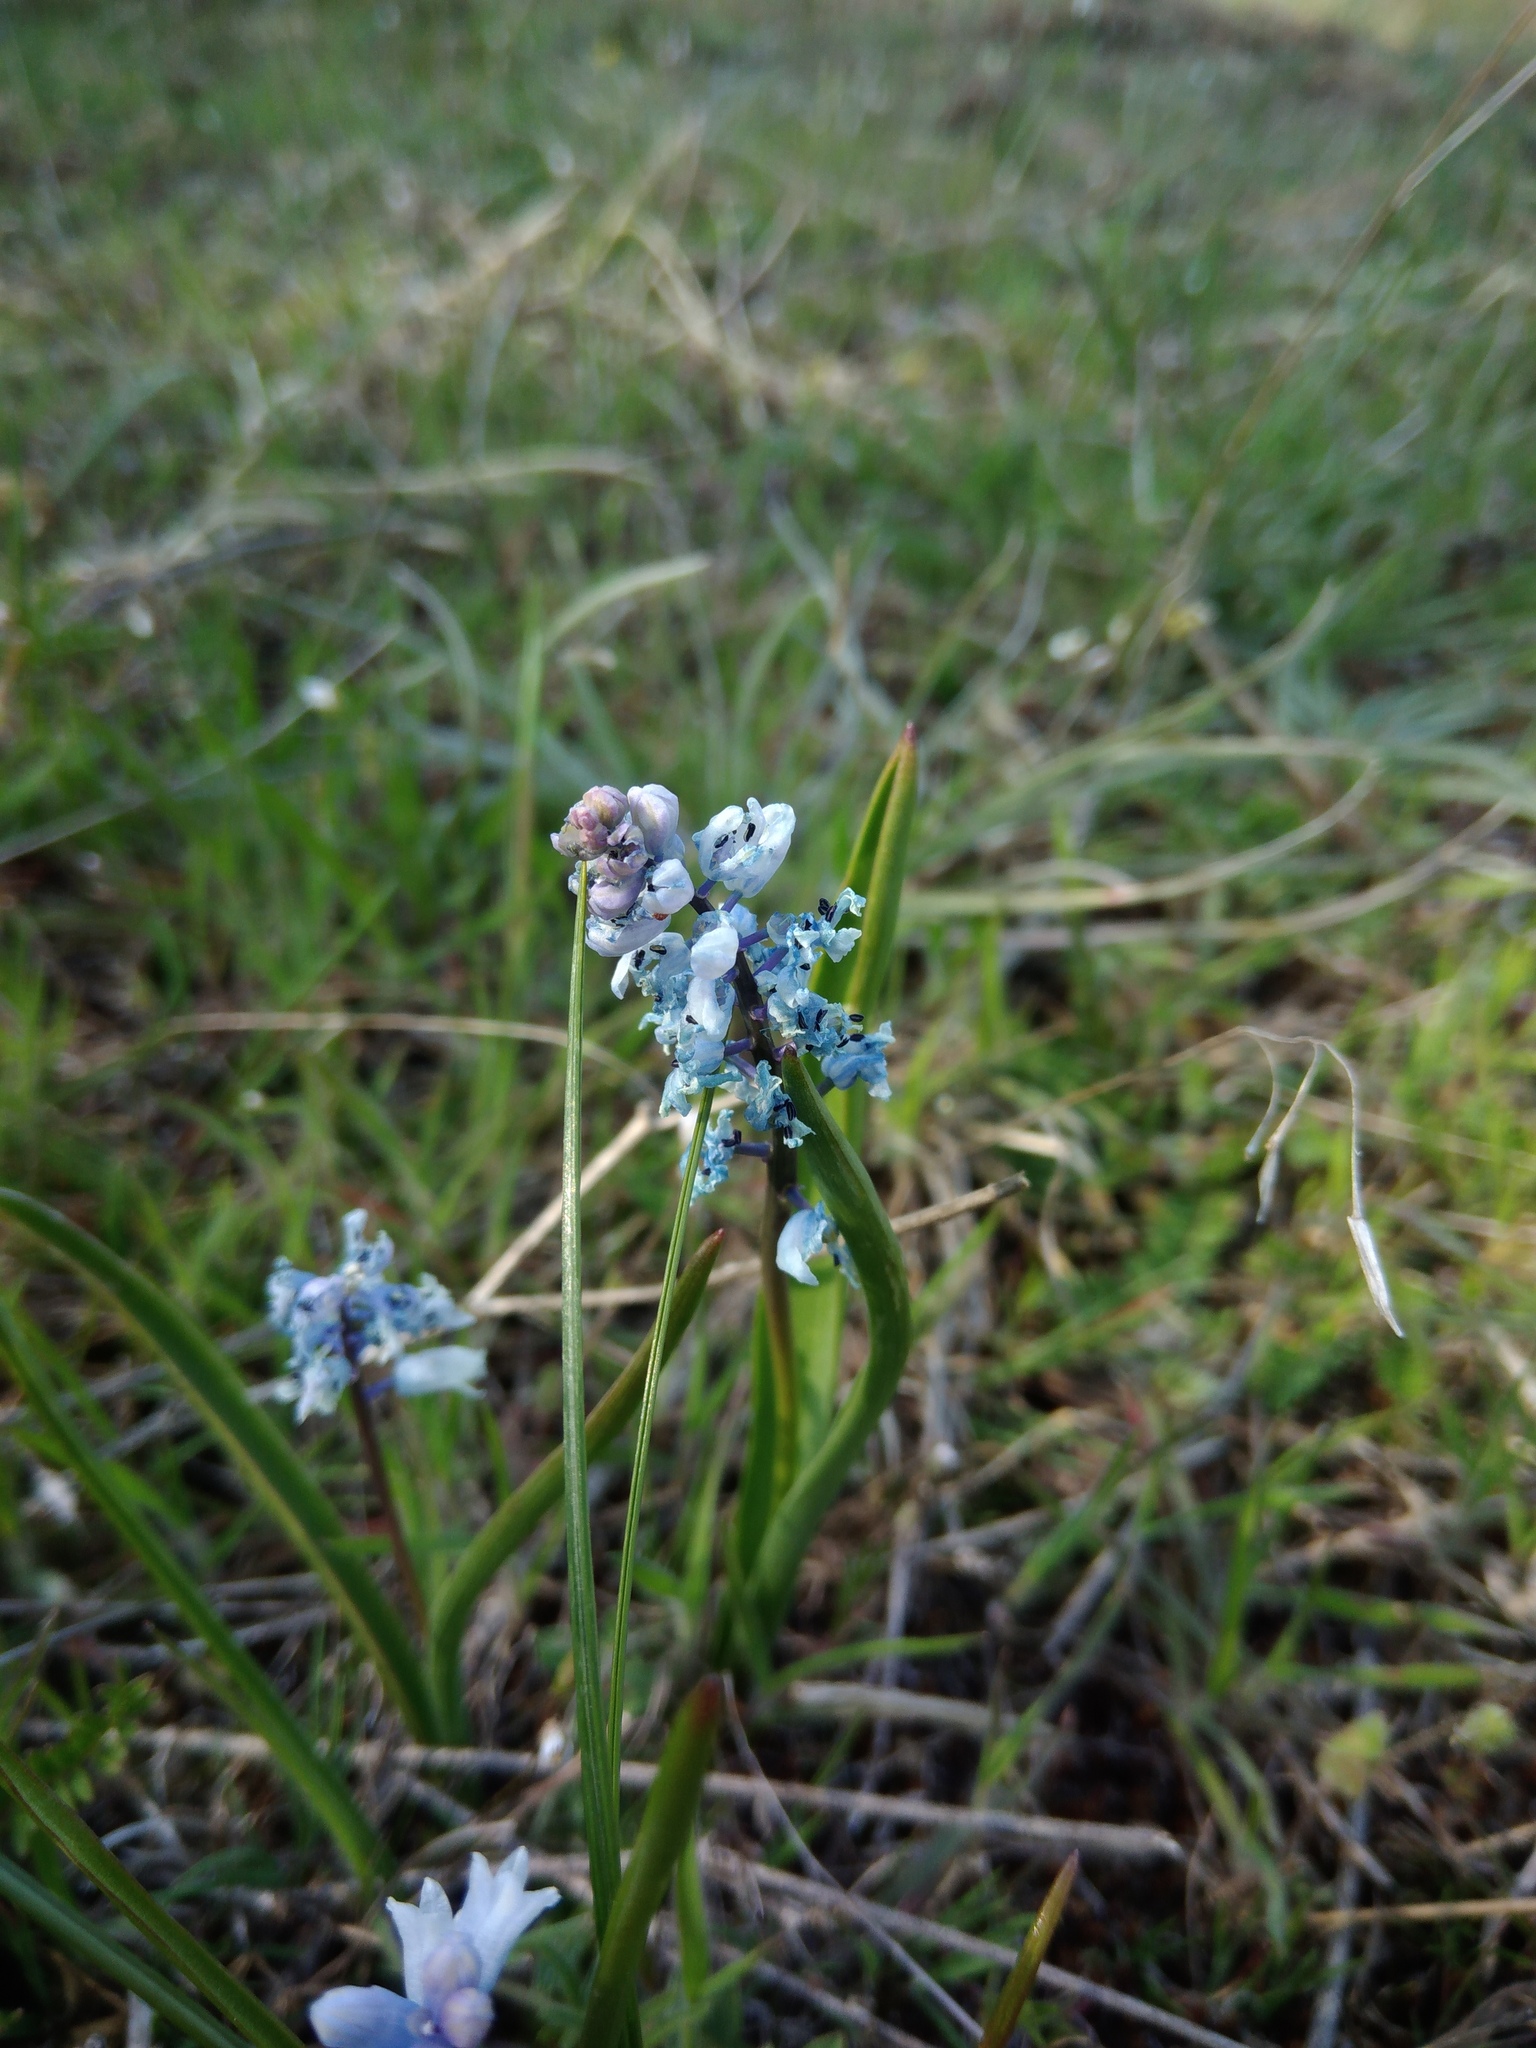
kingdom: Plantae
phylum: Tracheophyta
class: Liliopsida
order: Asparagales
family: Asparagaceae
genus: Hyacinthella
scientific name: Hyacinthella leucophaea
